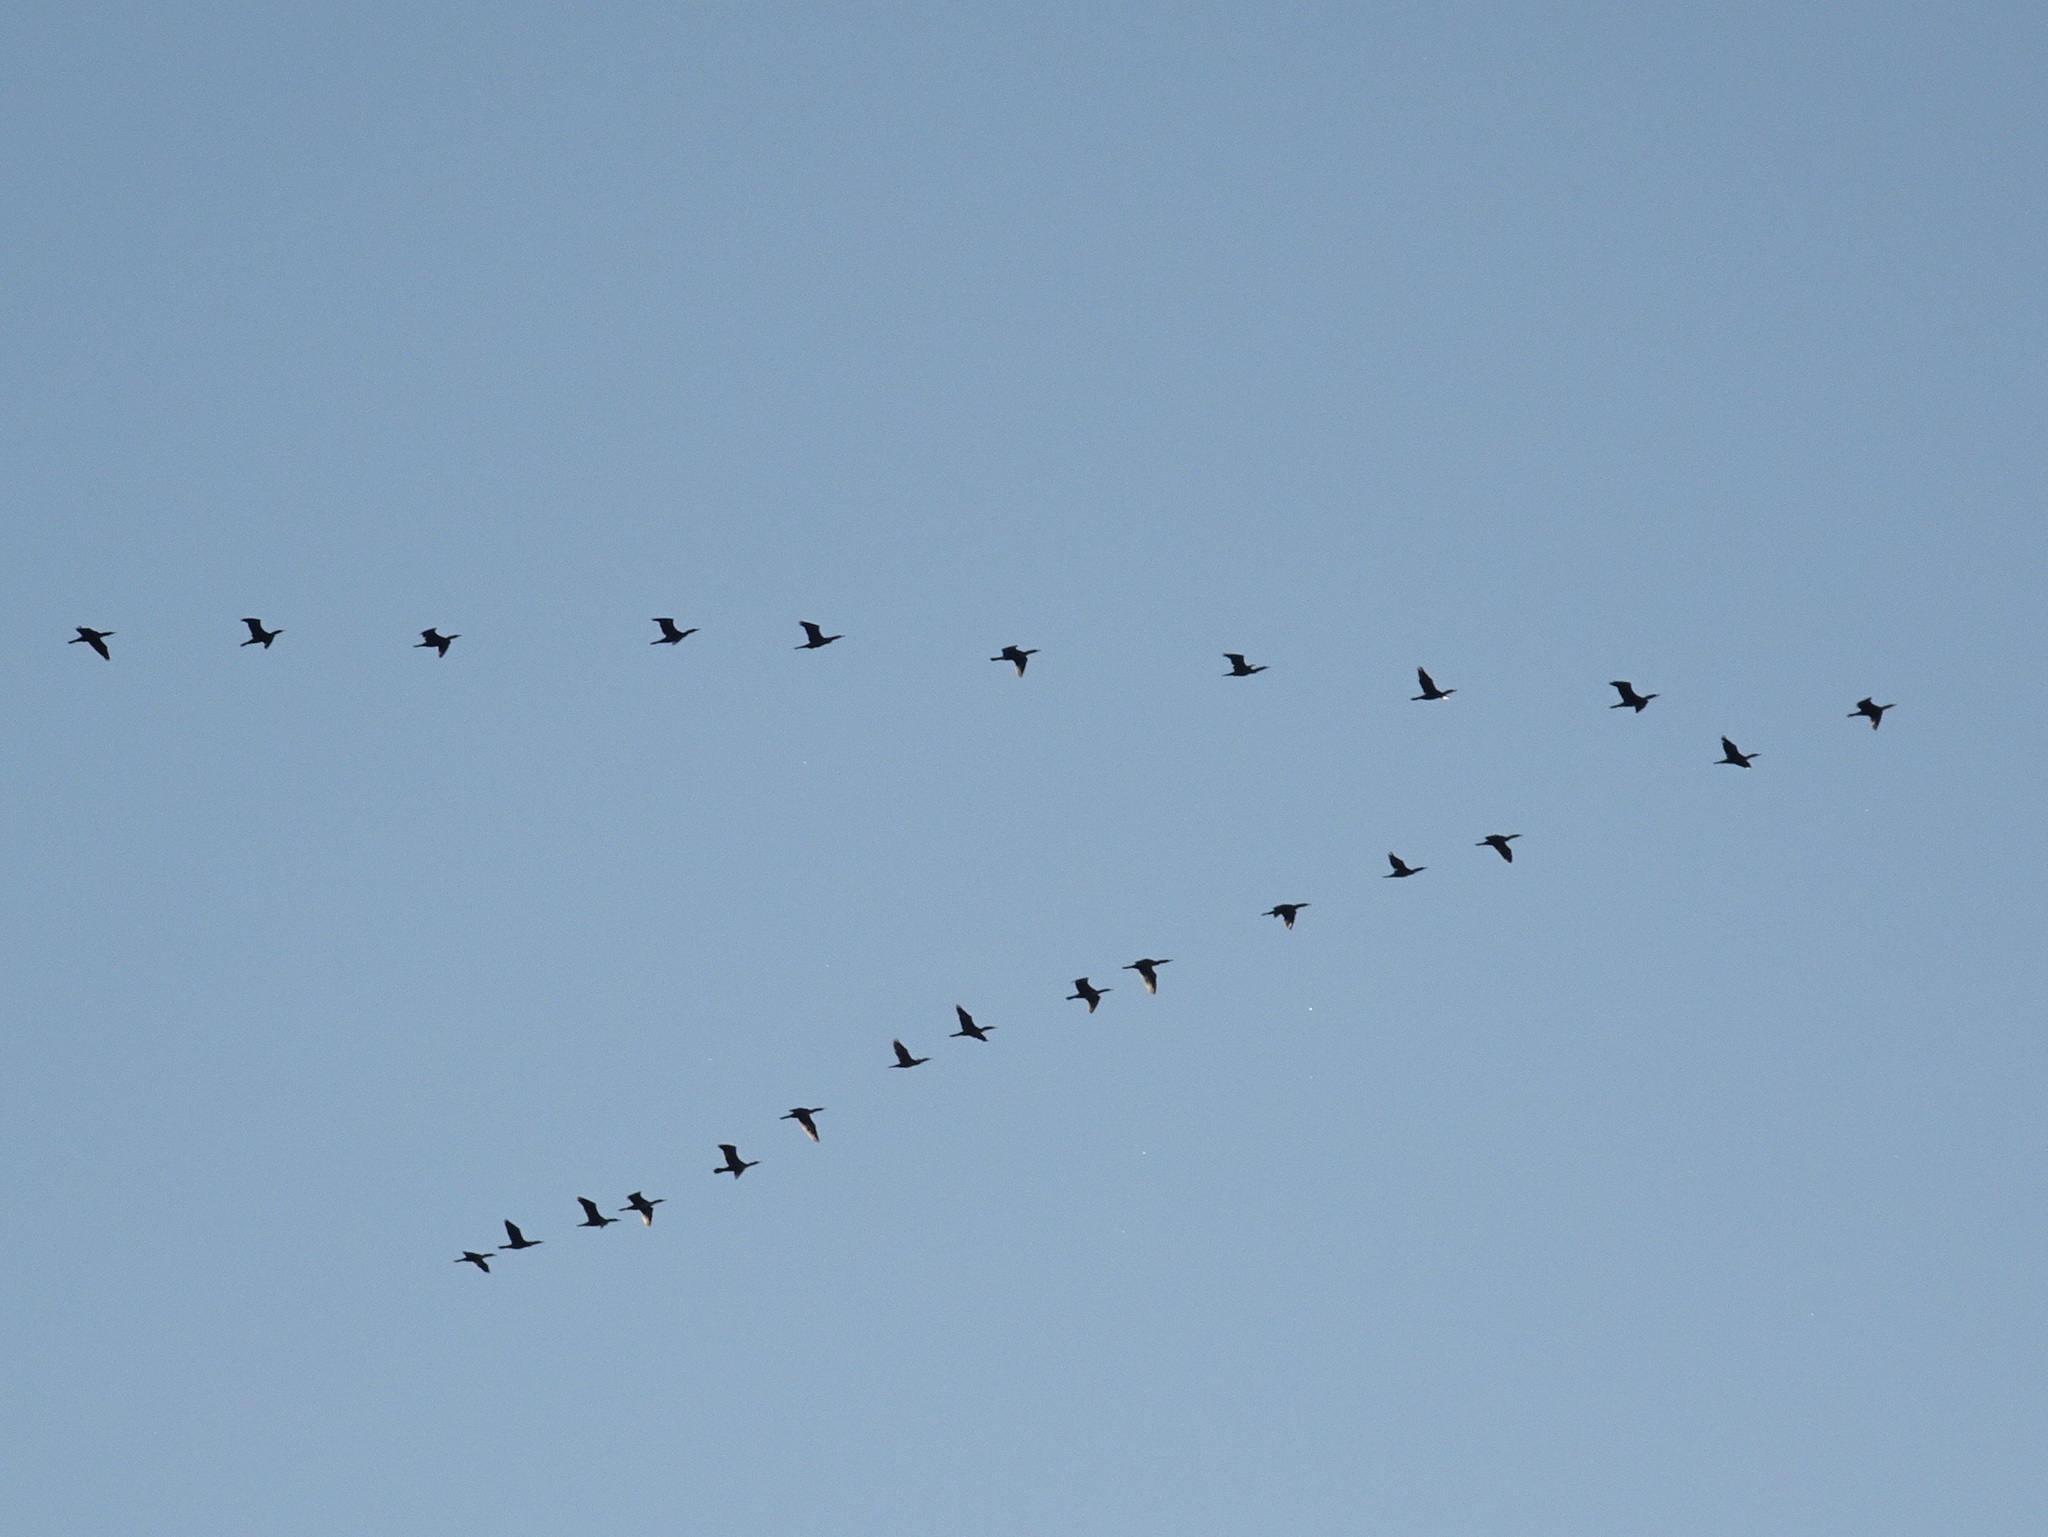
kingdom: Animalia
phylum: Chordata
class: Aves
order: Suliformes
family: Phalacrocoracidae
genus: Phalacrocorax
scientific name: Phalacrocorax auritus
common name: Double-crested cormorant
